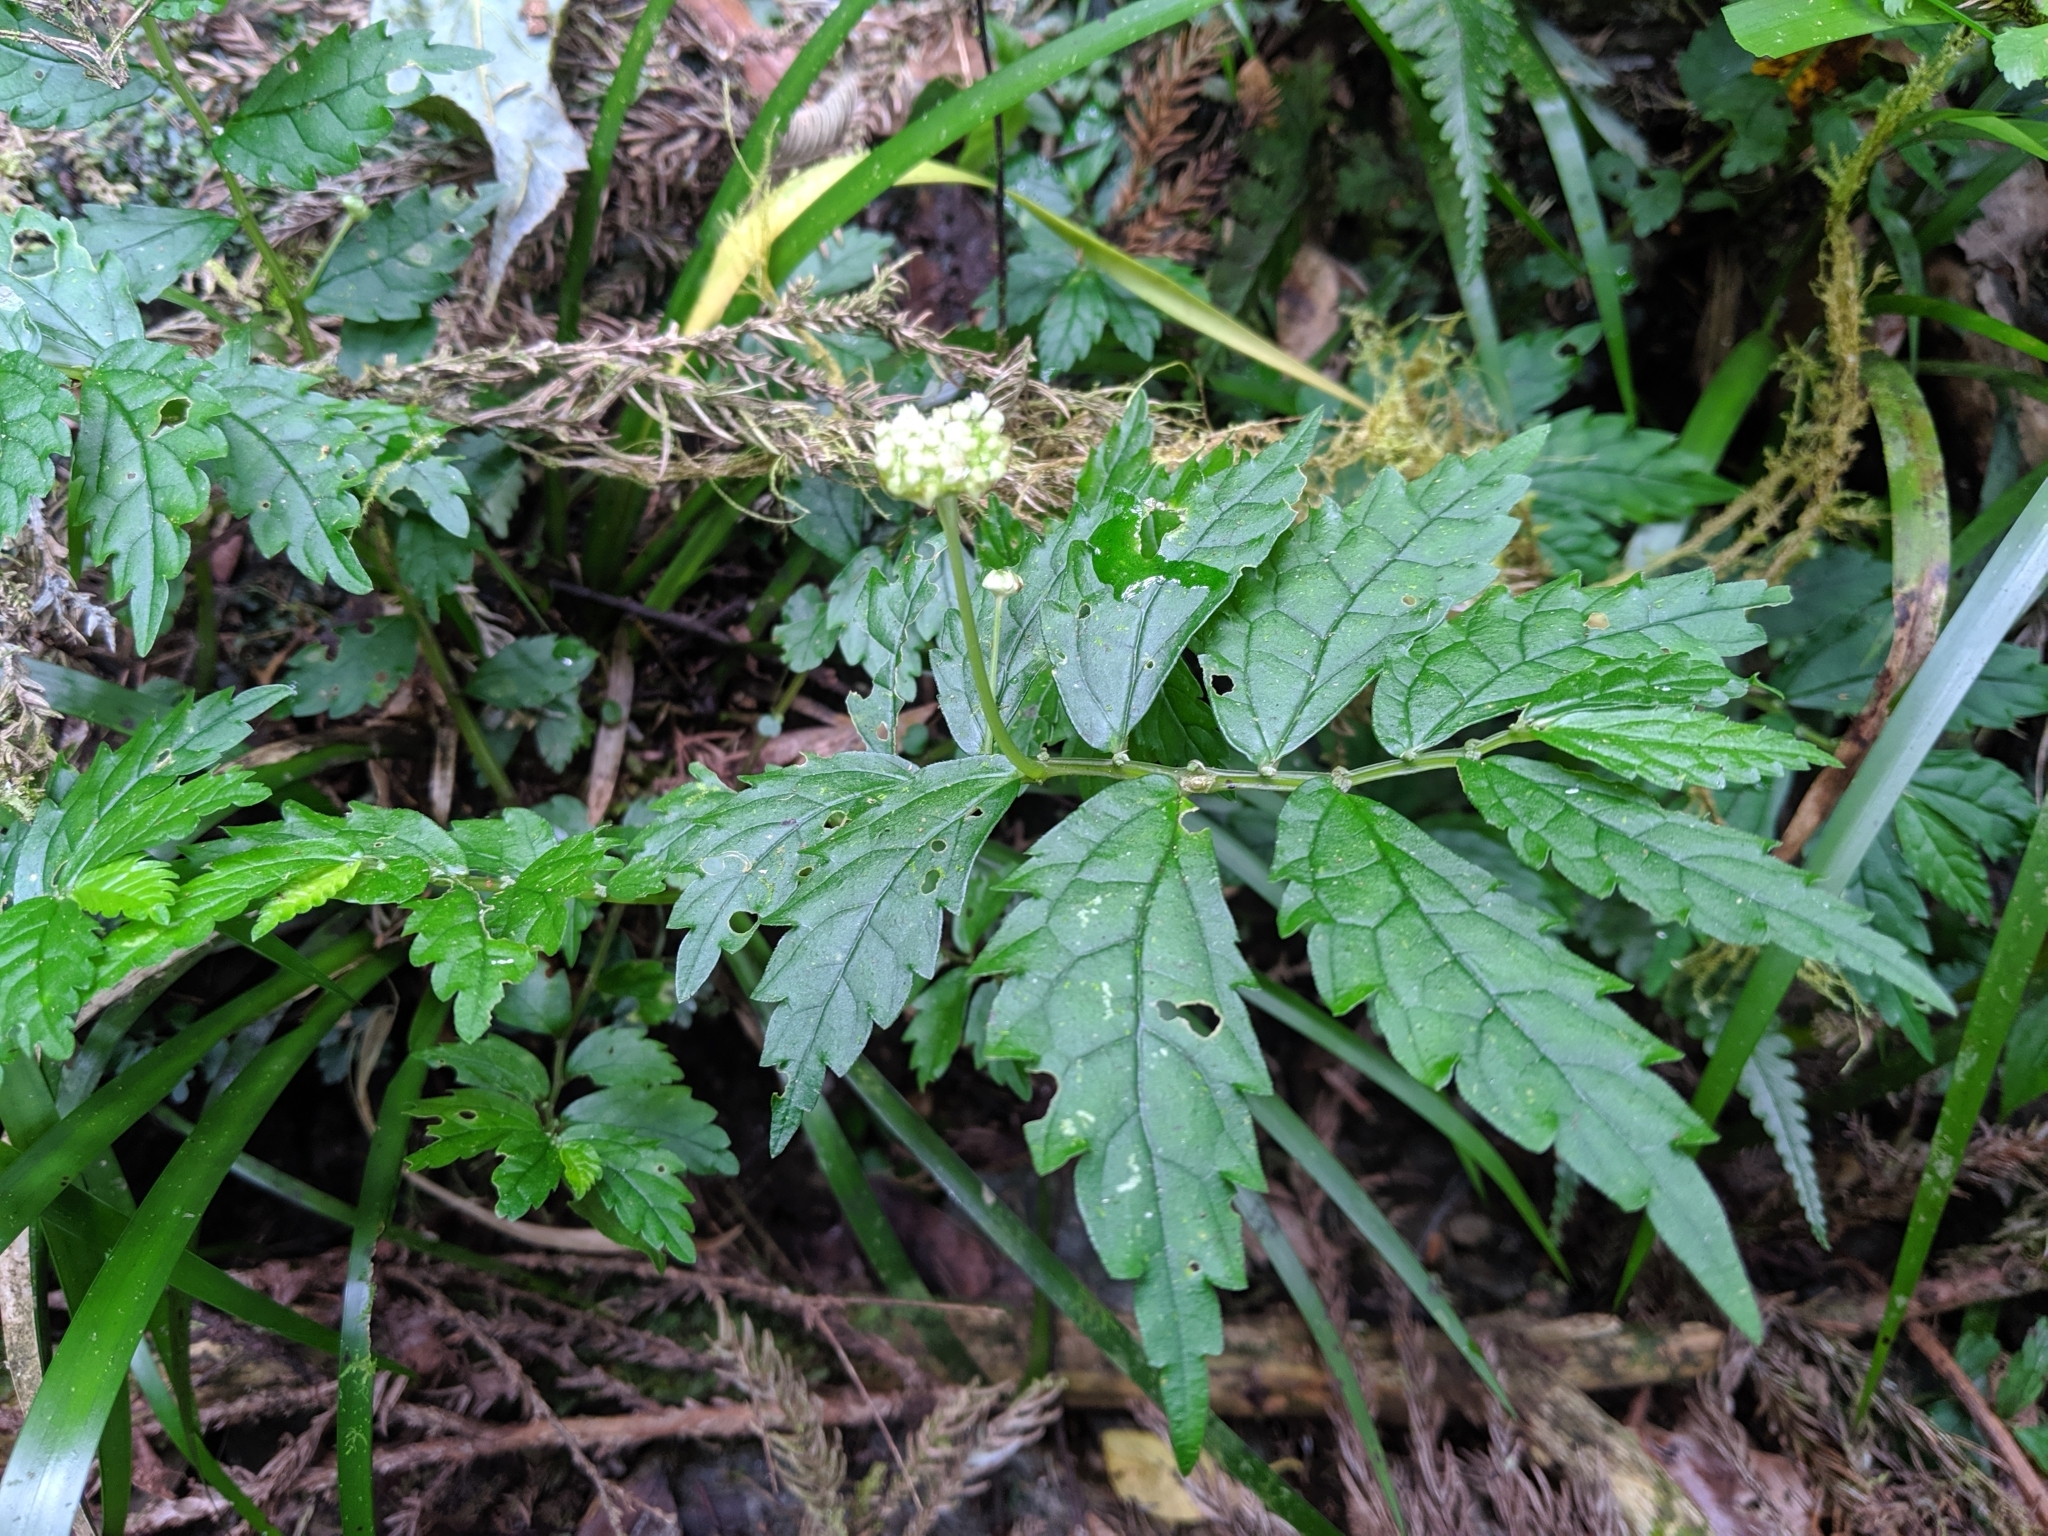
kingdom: Plantae
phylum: Tracheophyta
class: Magnoliopsida
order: Rosales
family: Urticaceae
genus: Elatostema
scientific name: Elatostema hypoglaucum
